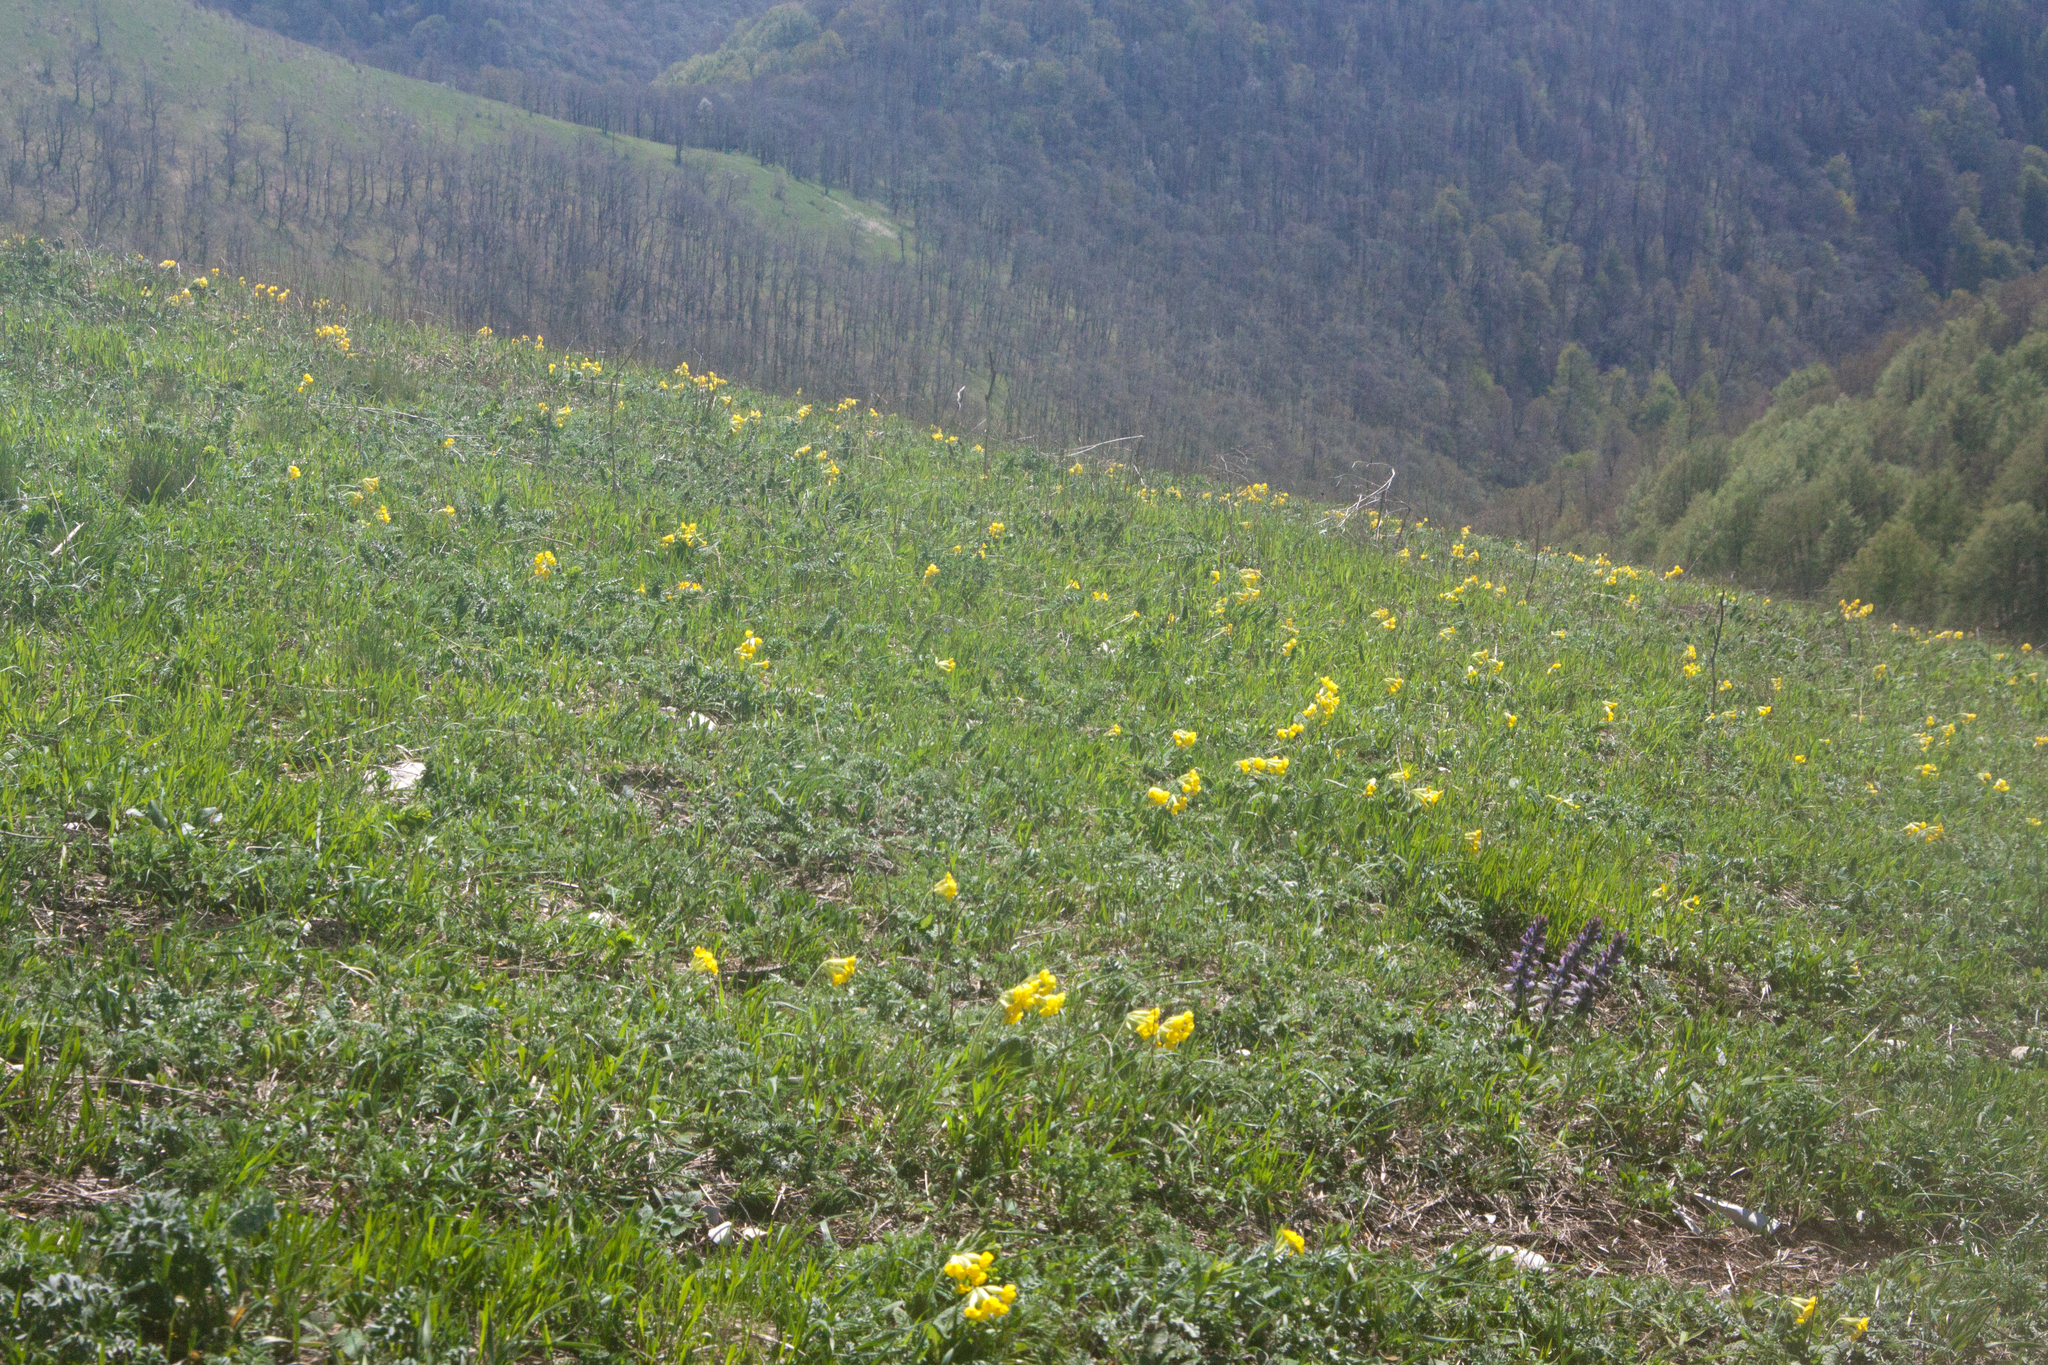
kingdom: Plantae
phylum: Tracheophyta
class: Magnoliopsida
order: Ericales
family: Primulaceae
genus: Primula
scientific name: Primula veris
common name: Cowslip
